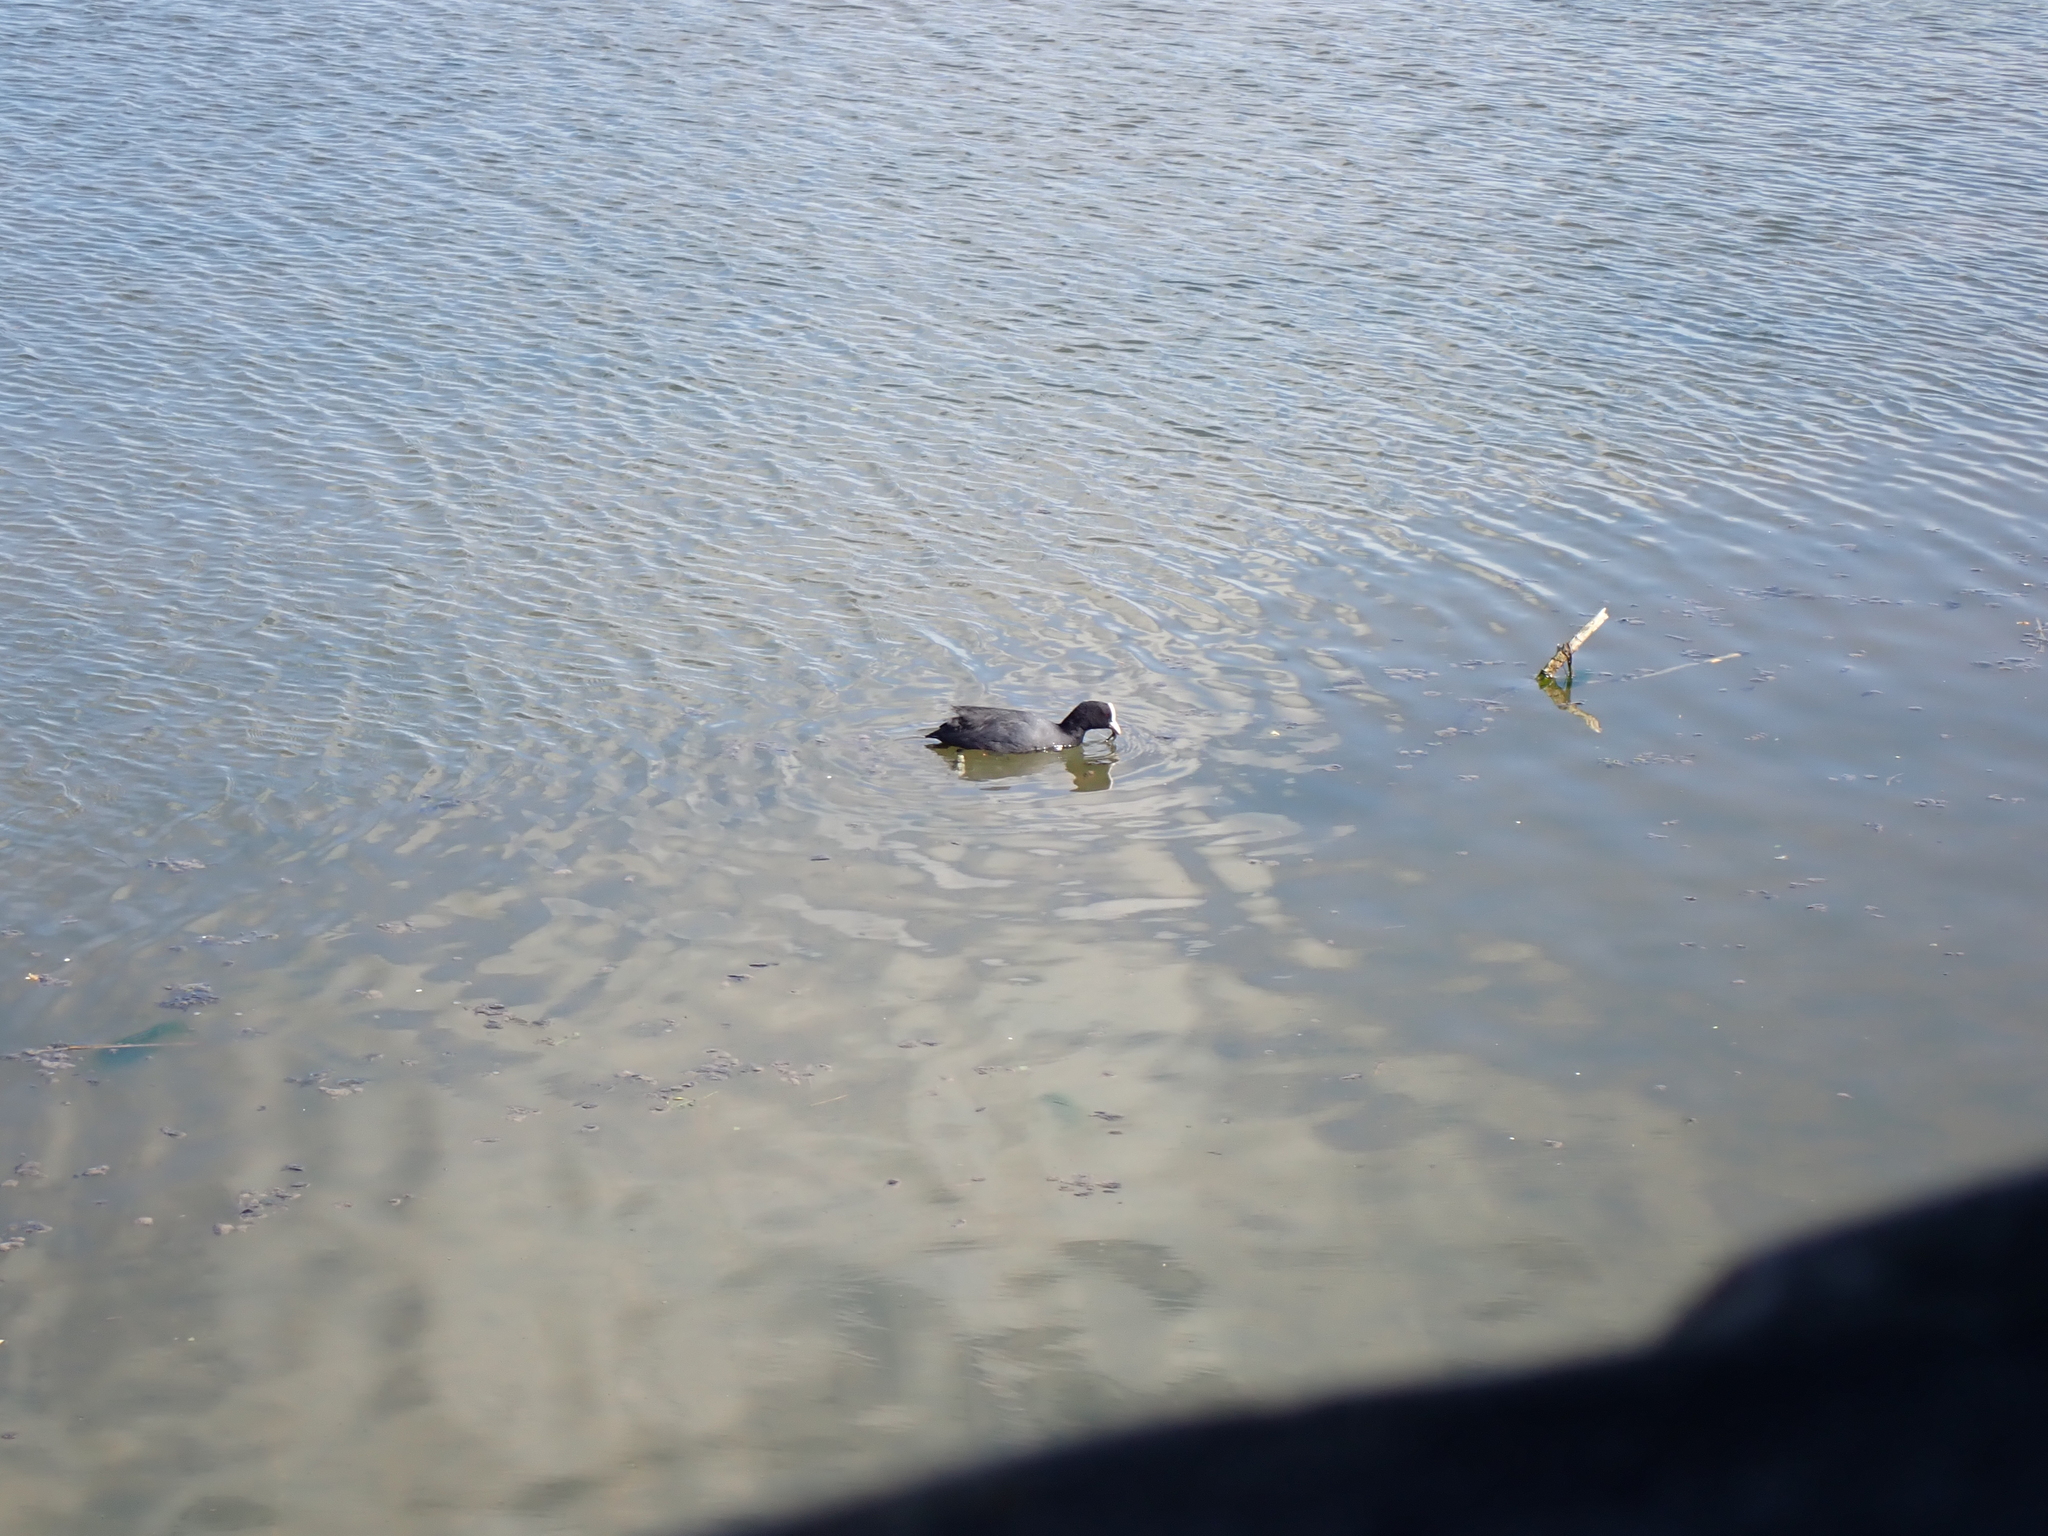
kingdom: Animalia
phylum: Chordata
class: Aves
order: Gruiformes
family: Rallidae
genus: Fulica
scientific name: Fulica atra
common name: Eurasian coot
